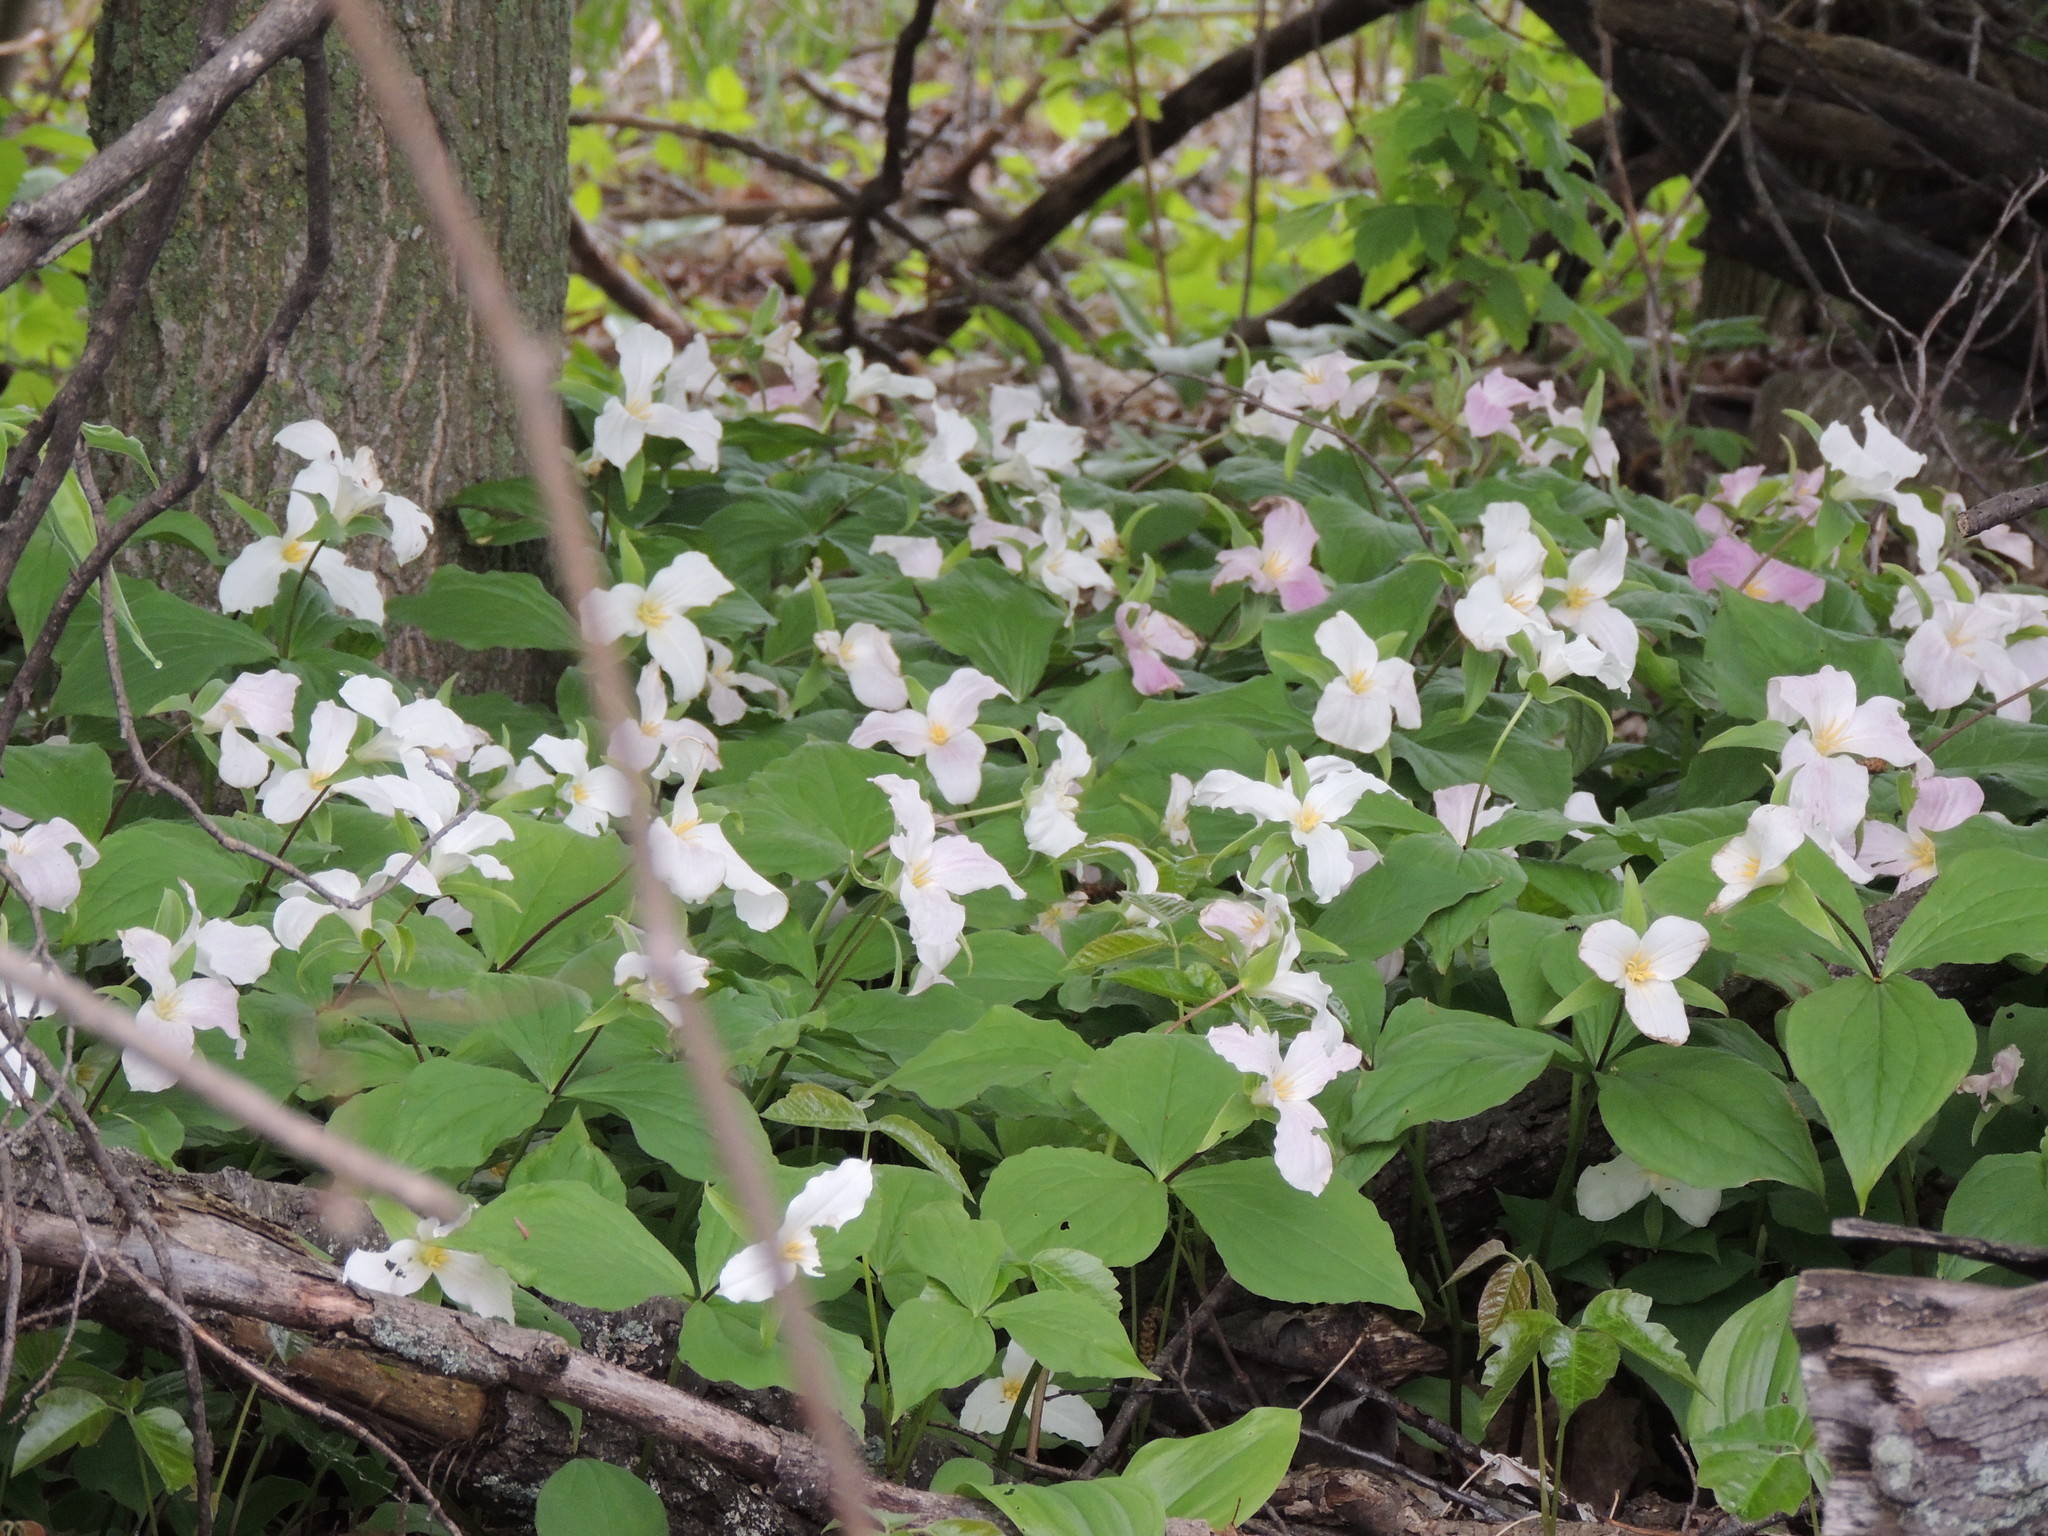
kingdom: Plantae
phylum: Tracheophyta
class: Liliopsida
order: Liliales
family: Melanthiaceae
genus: Trillium
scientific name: Trillium grandiflorum
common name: Great white trillium
